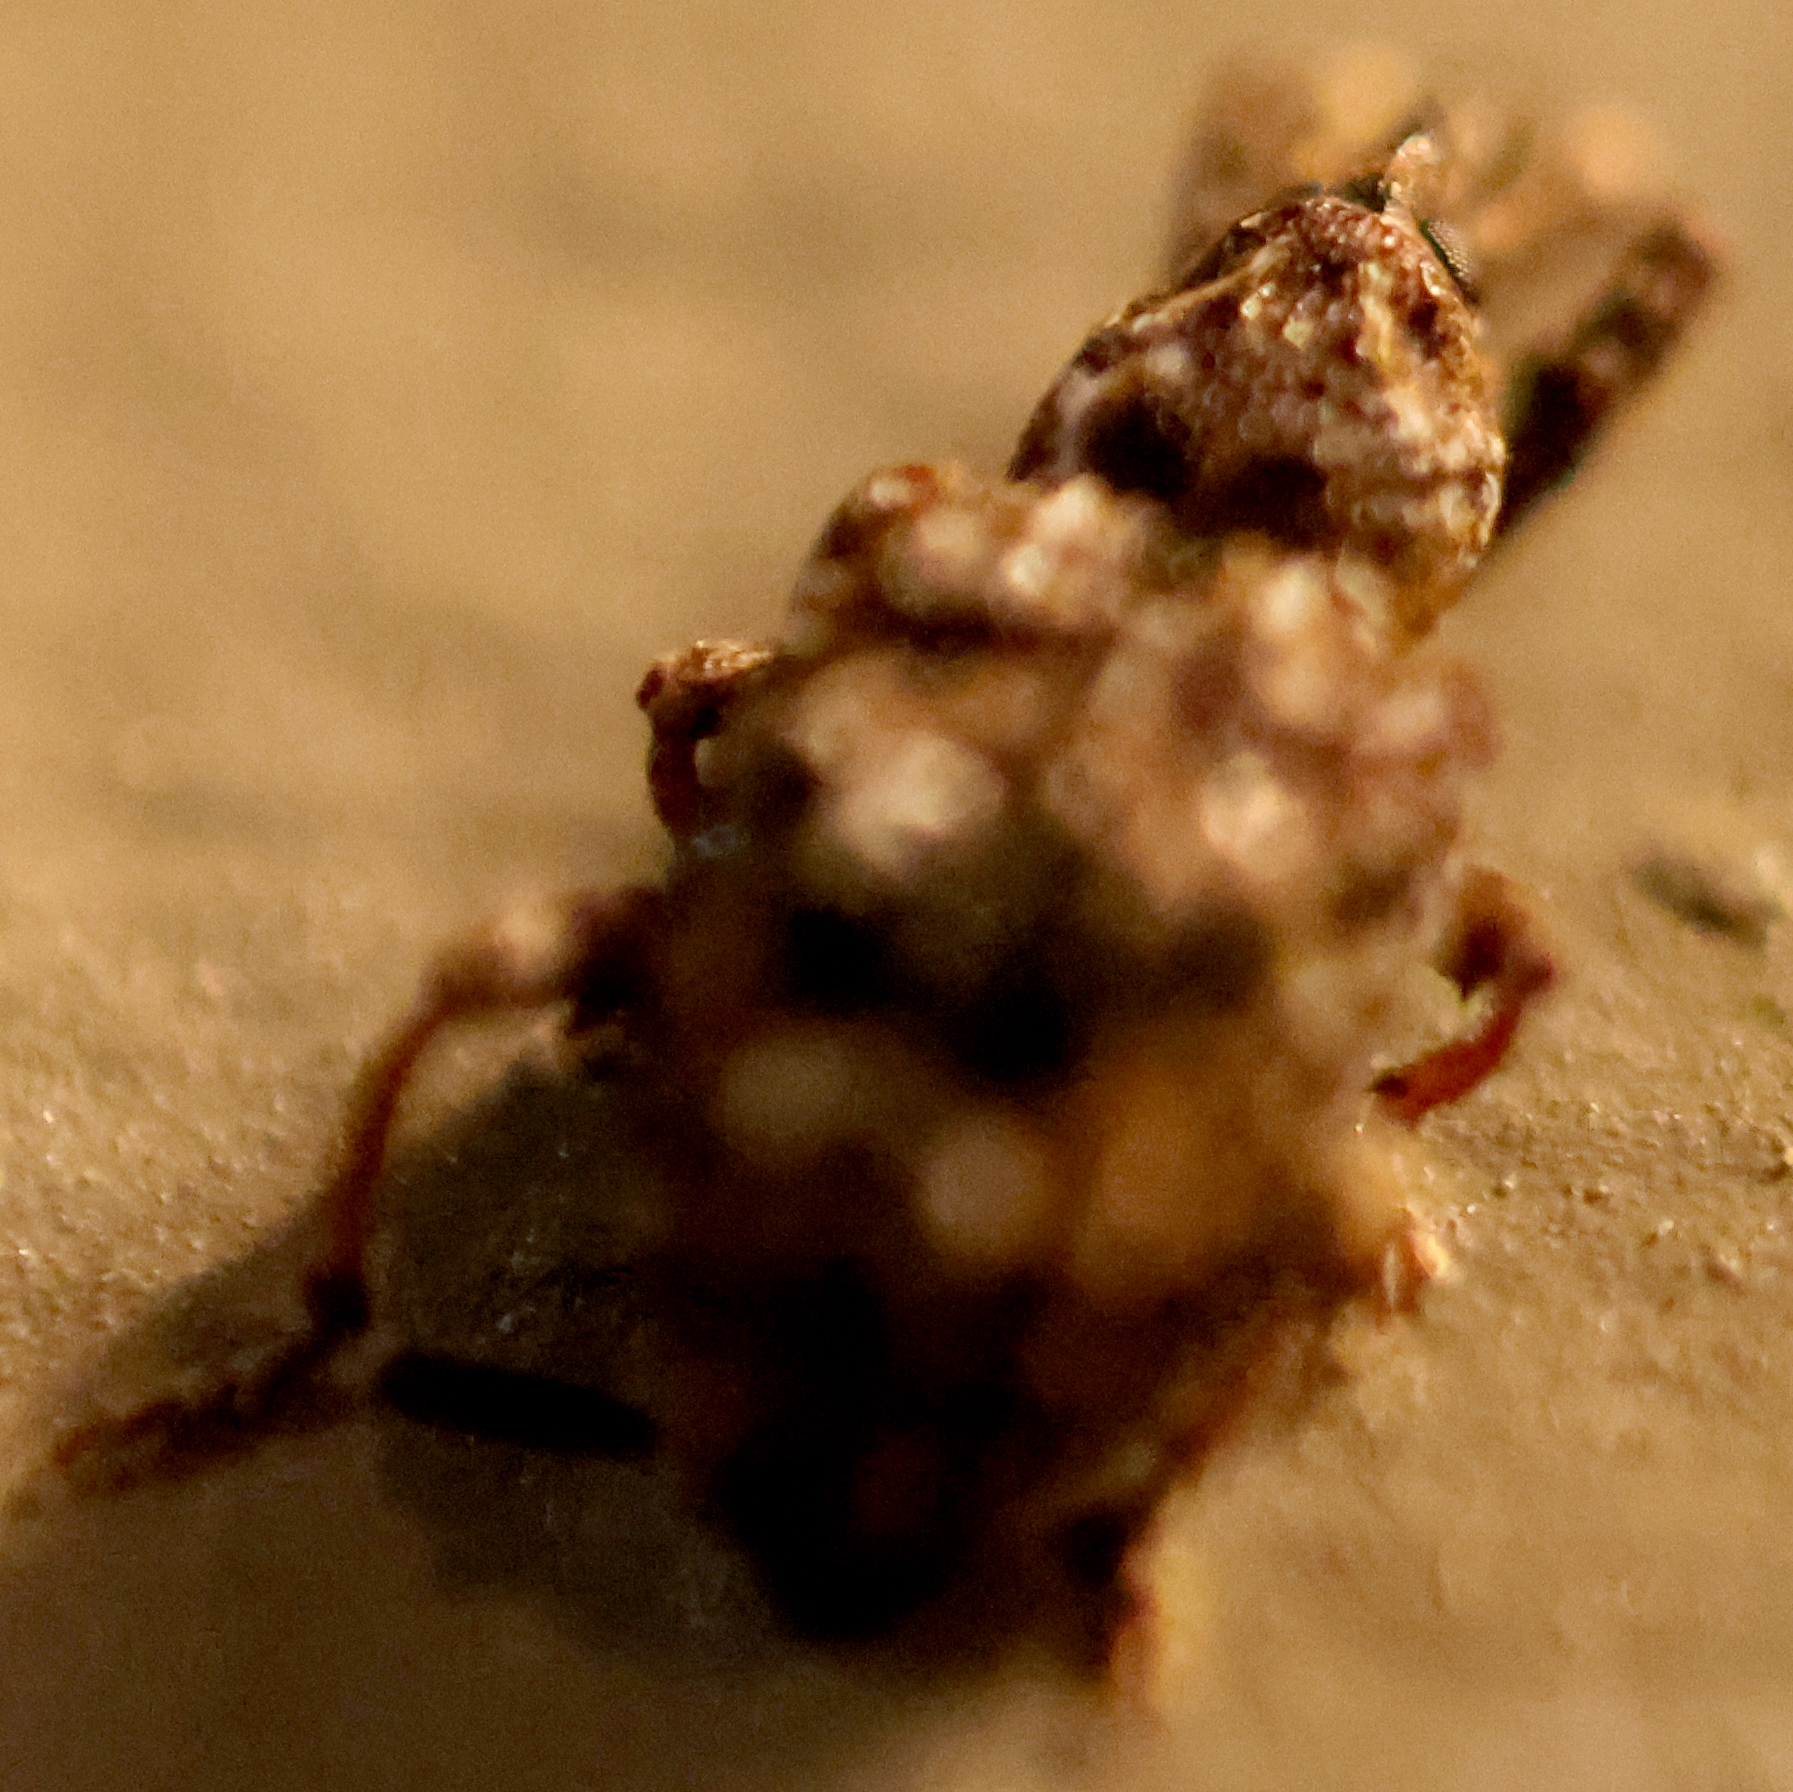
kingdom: Animalia
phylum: Arthropoda
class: Insecta
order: Coleoptera
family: Curculionidae
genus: Conotrachelus
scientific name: Conotrachelus nenuphar
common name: Plum curculio
